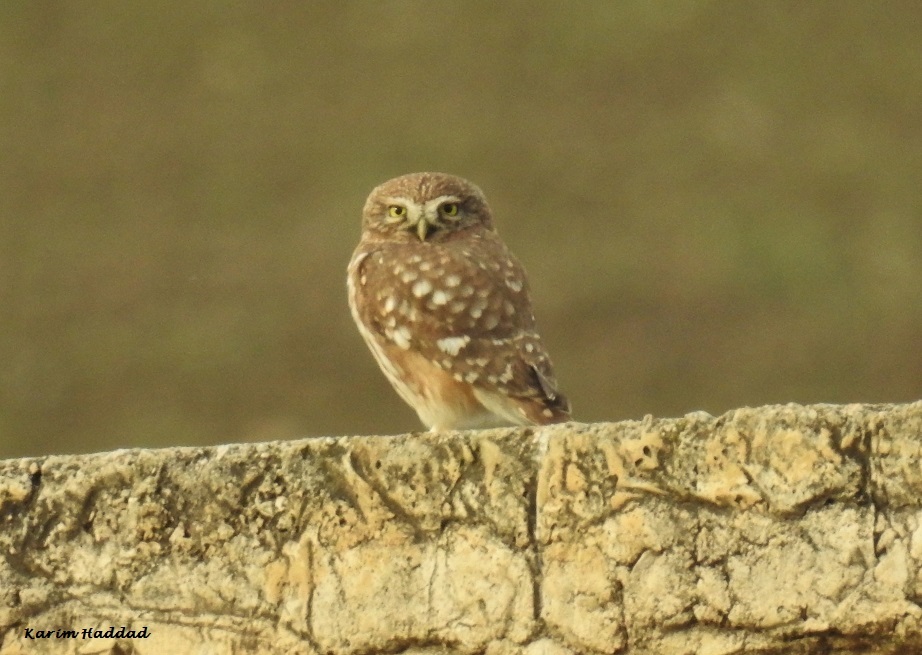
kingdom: Animalia
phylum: Chordata
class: Aves
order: Strigiformes
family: Strigidae
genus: Athene
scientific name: Athene noctua
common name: Little owl
